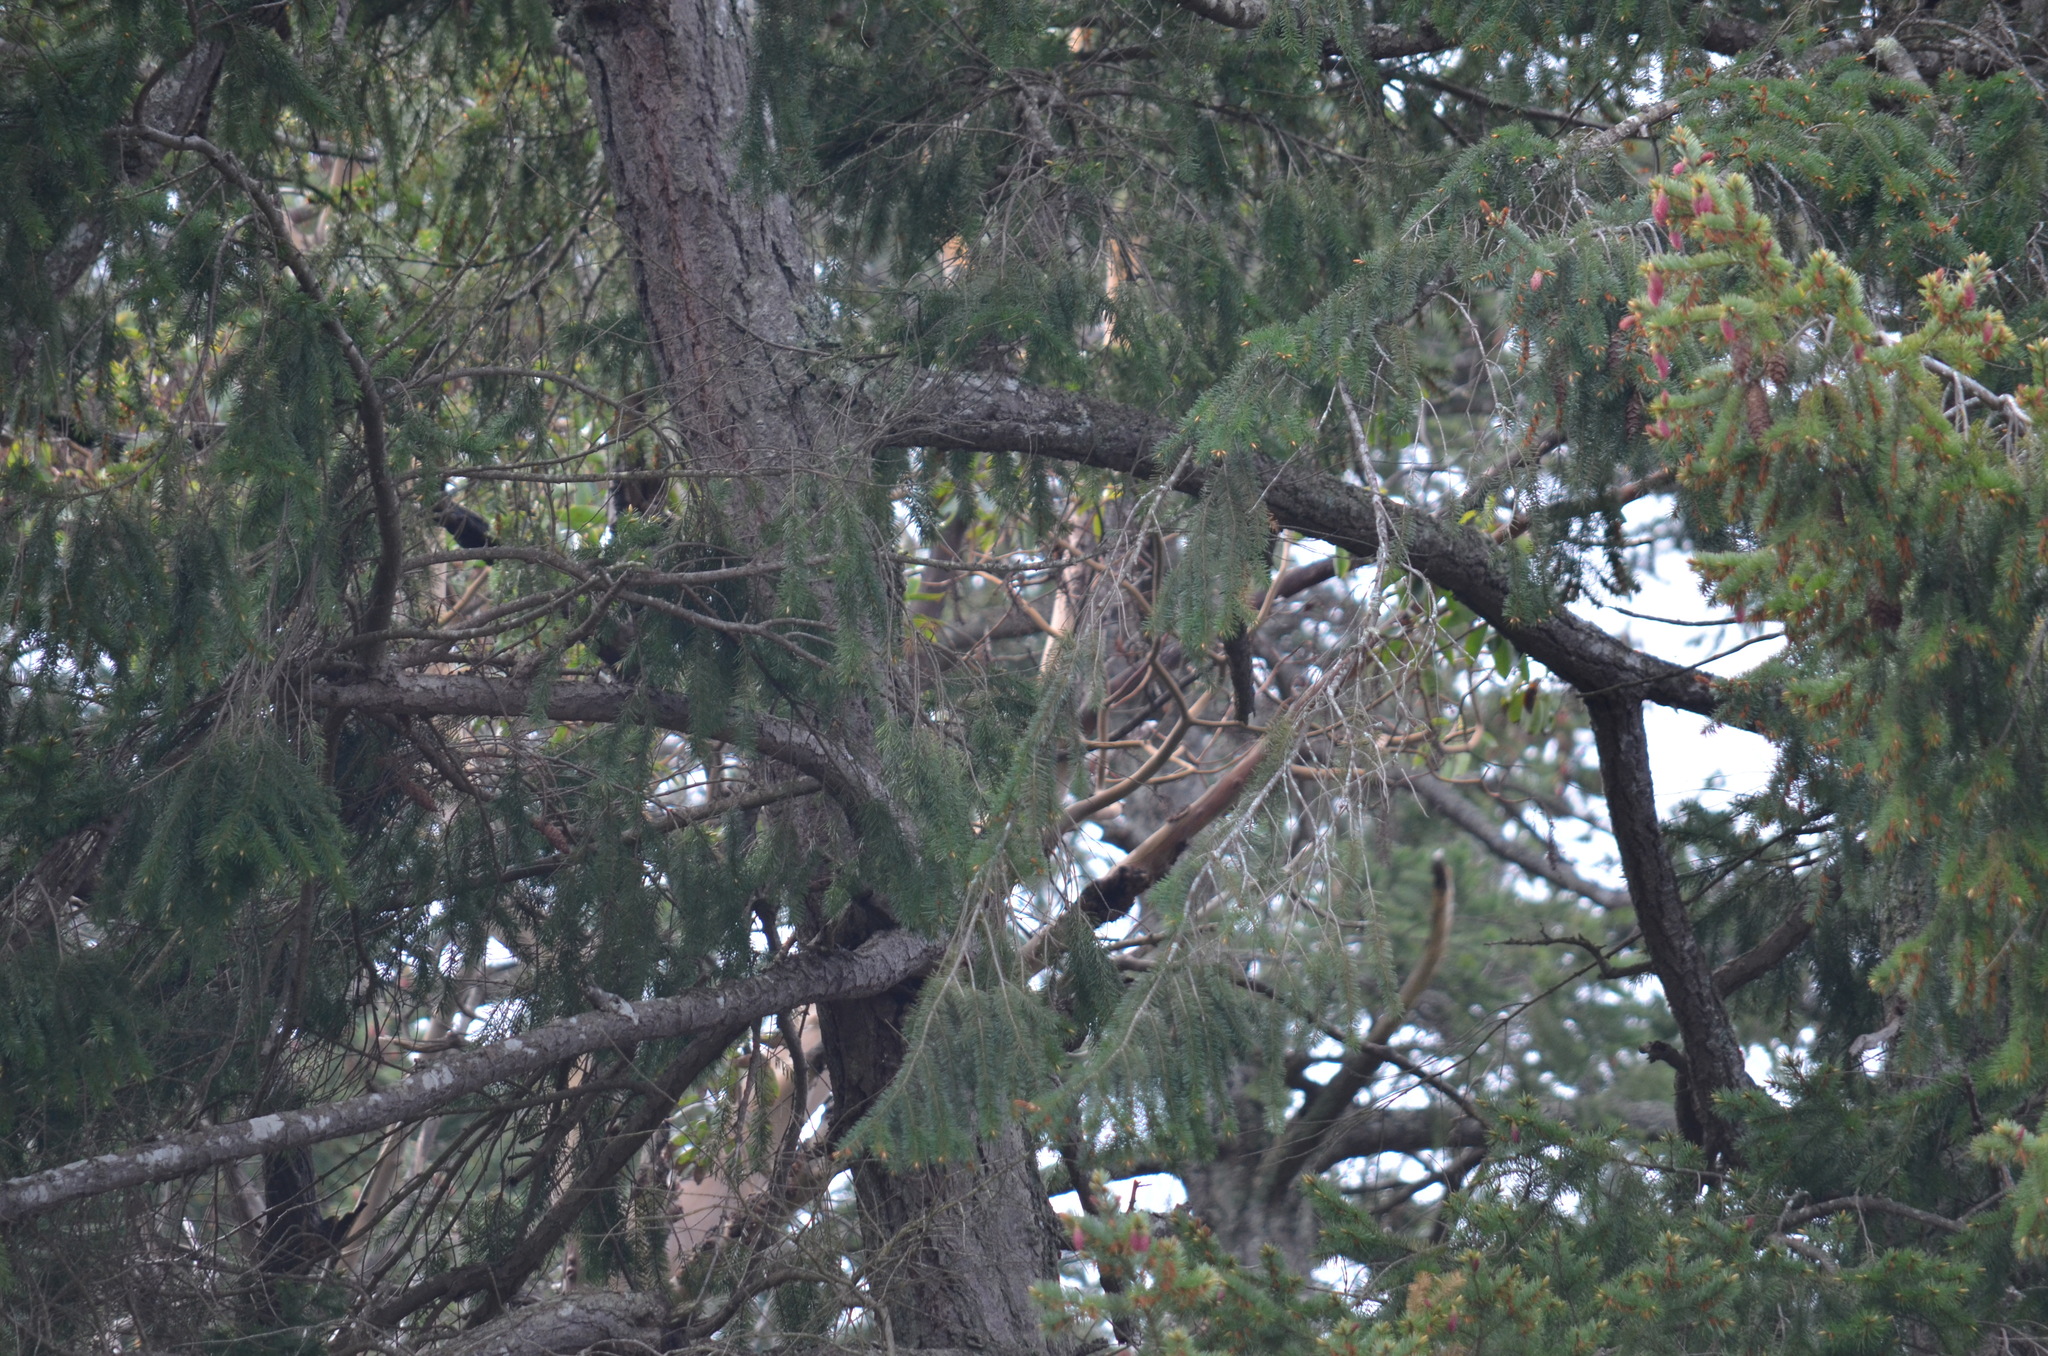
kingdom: Plantae
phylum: Tracheophyta
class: Pinopsida
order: Pinales
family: Pinaceae
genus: Pseudotsuga
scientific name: Pseudotsuga menziesii
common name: Douglas fir
